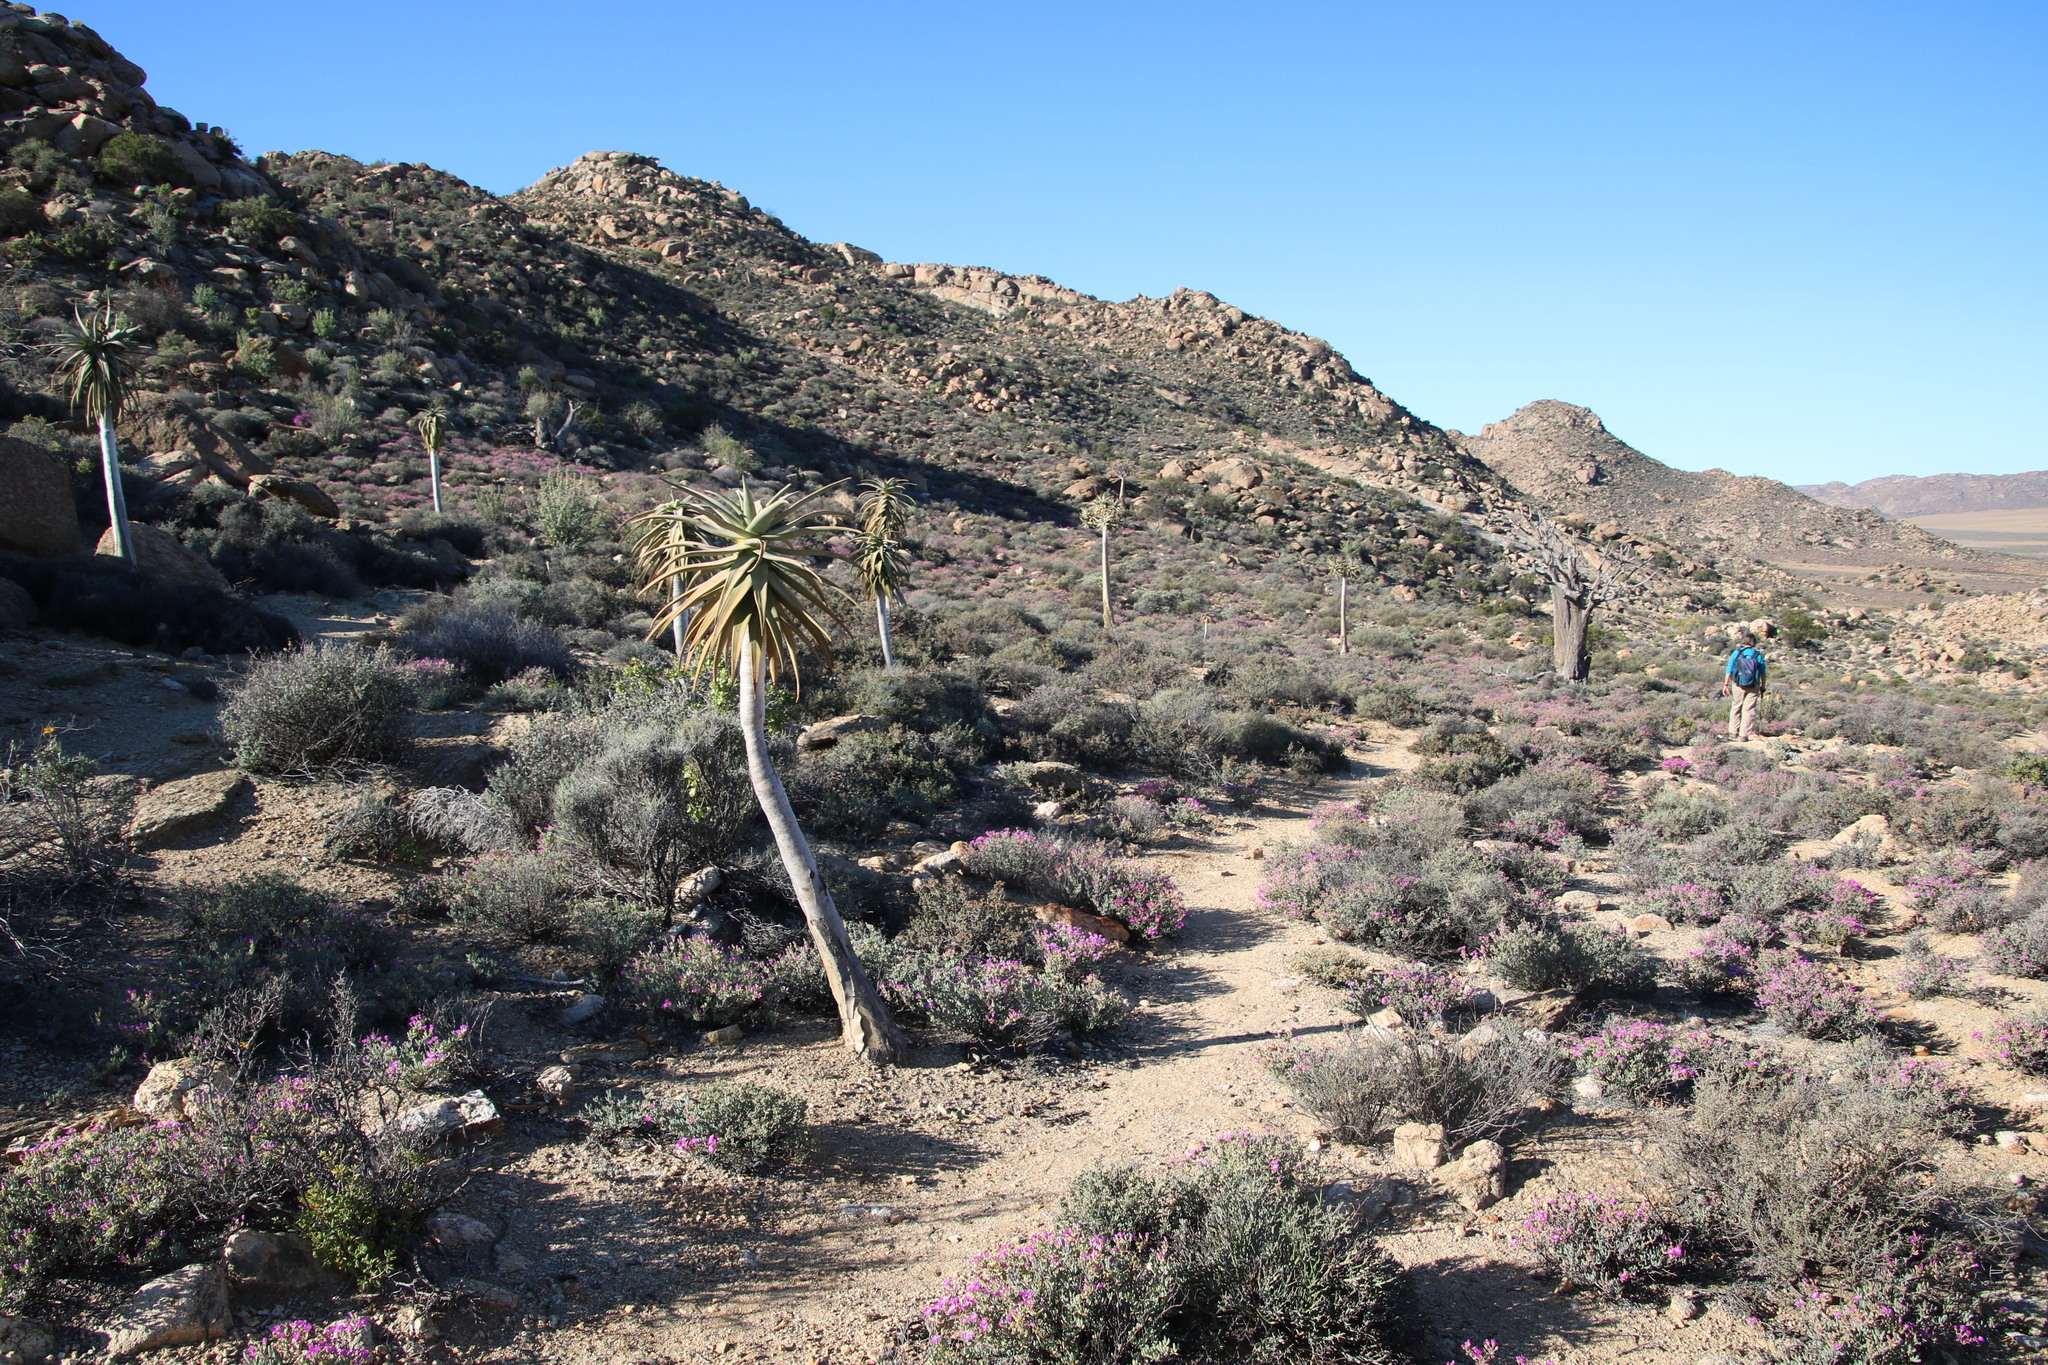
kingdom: Plantae
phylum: Tracheophyta
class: Liliopsida
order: Asparagales
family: Asphodelaceae
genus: Aloidendron
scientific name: Aloidendron dichotomum
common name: Quiver tree
